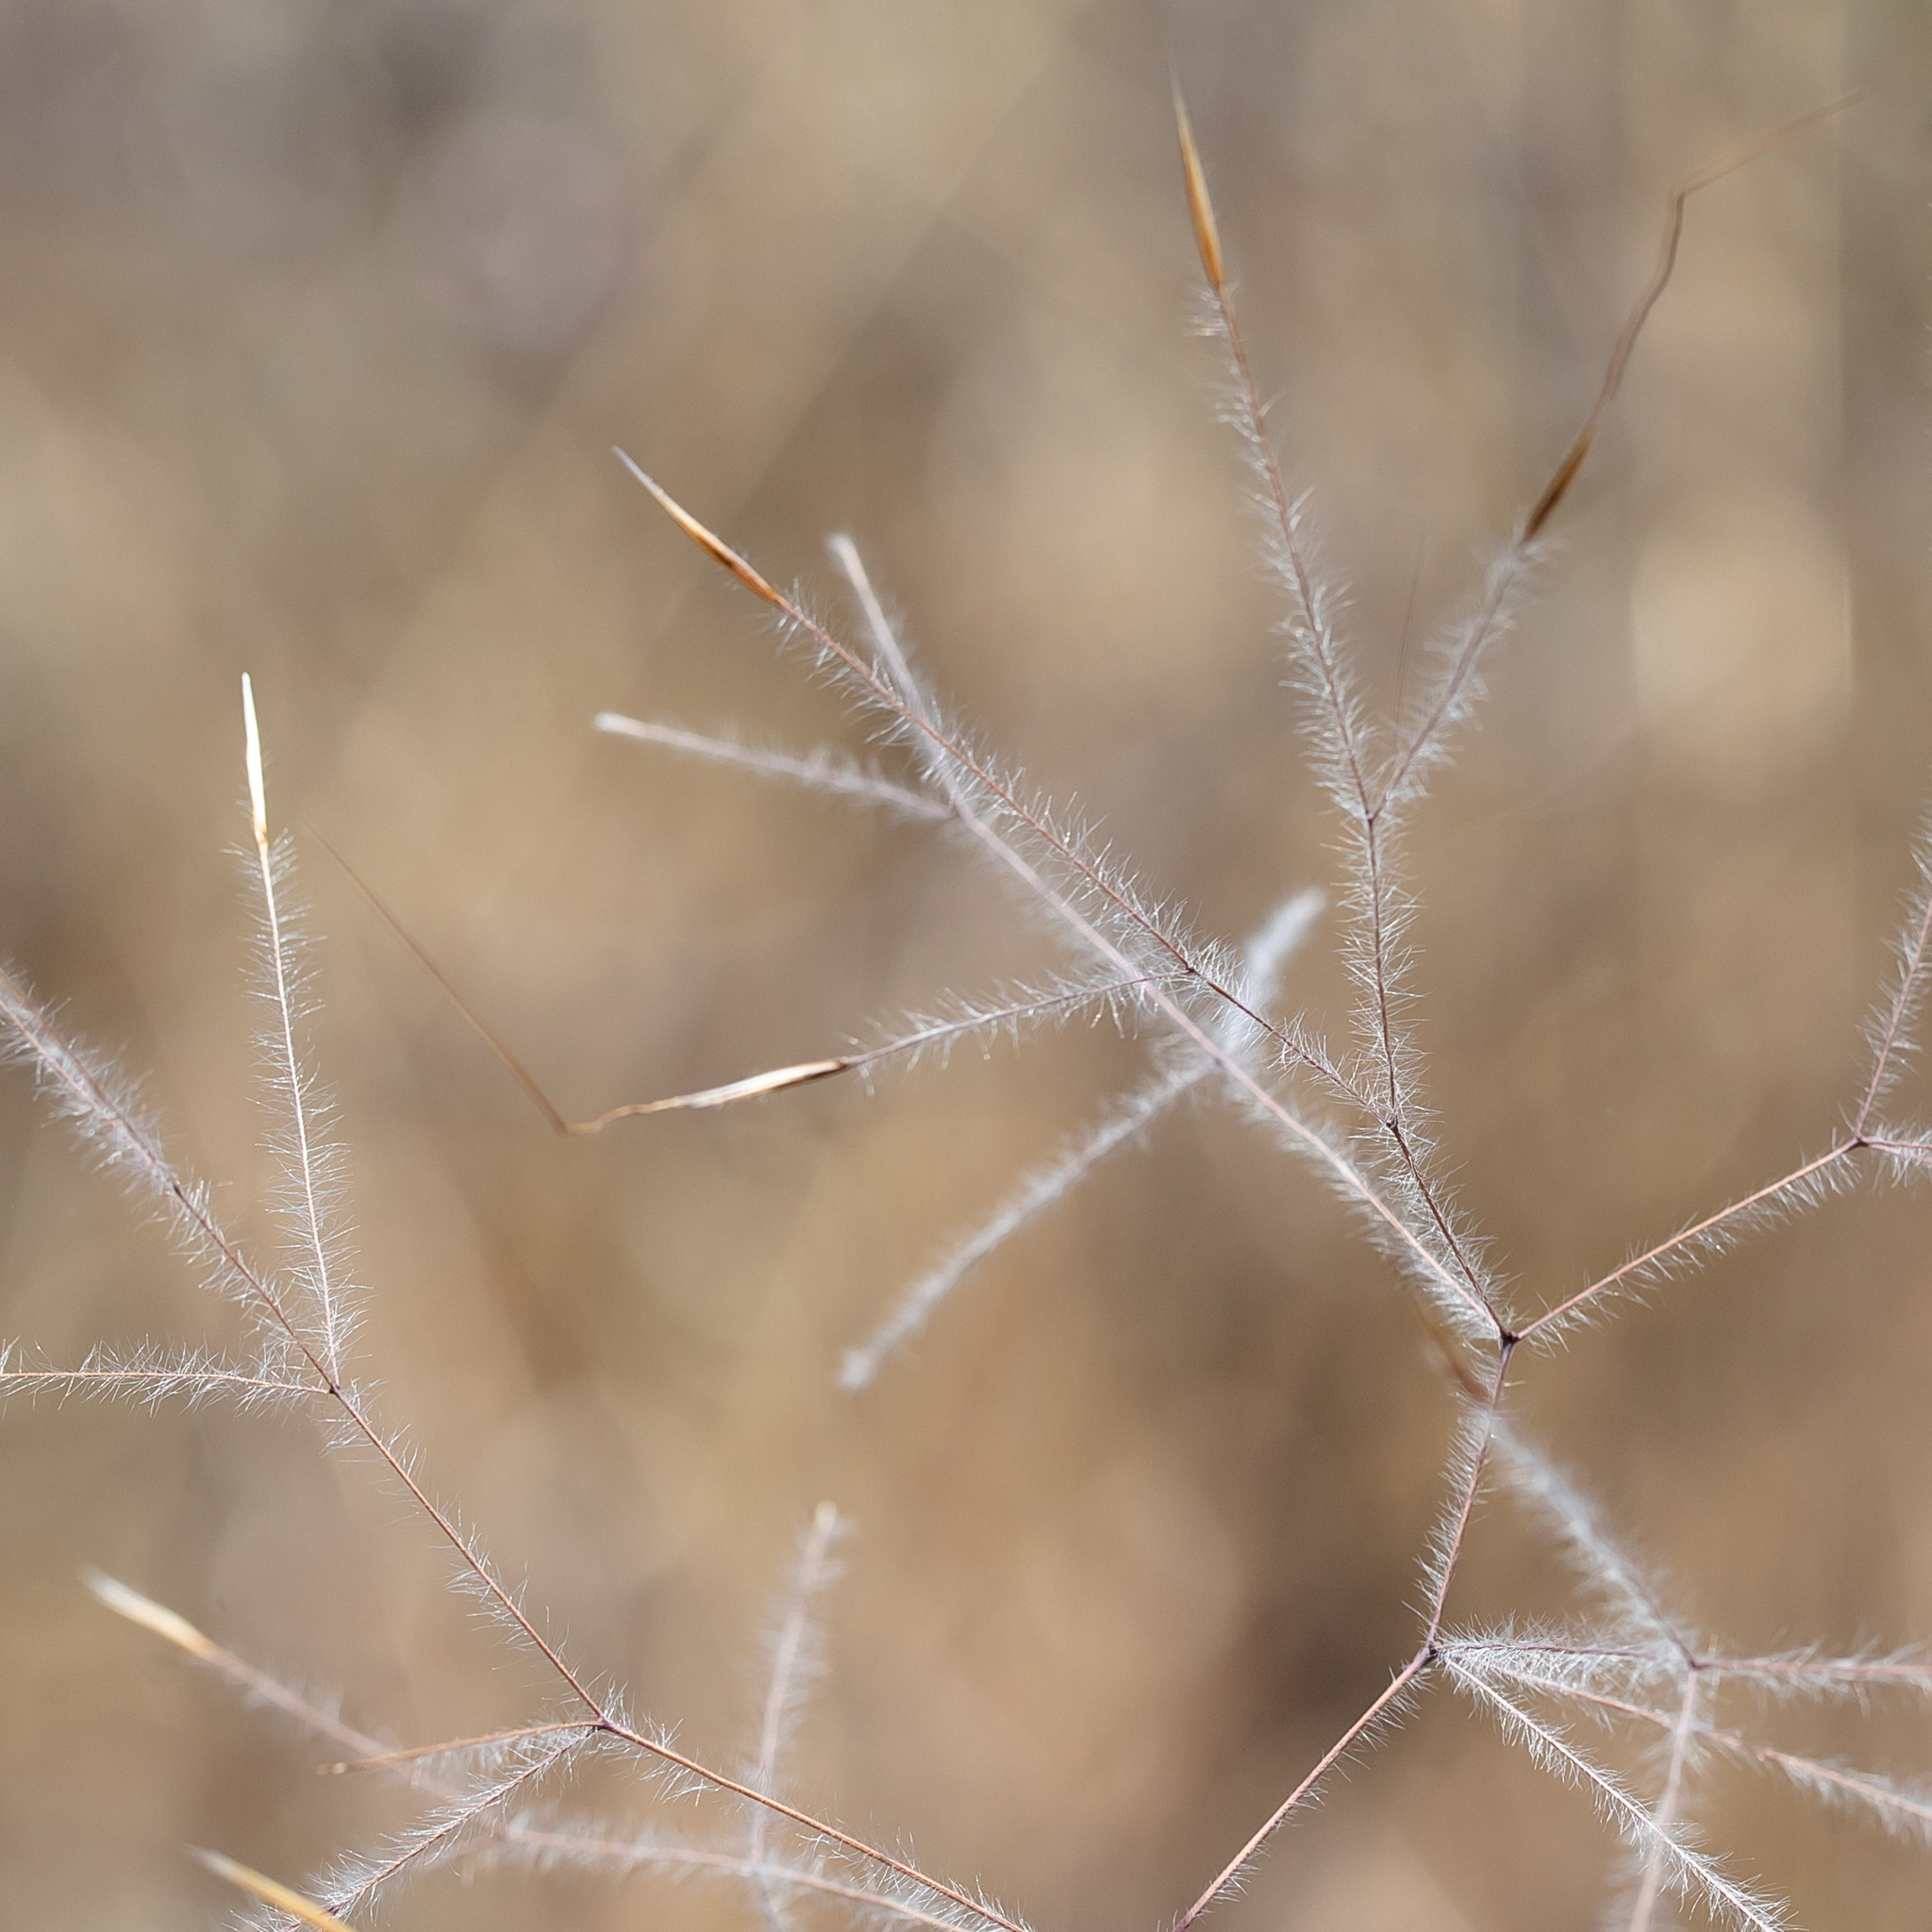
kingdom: Plantae
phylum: Tracheophyta
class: Liliopsida
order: Poales
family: Poaceae
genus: Austrostipa
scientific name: Austrostipa elegantissima
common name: Feather spear grass
